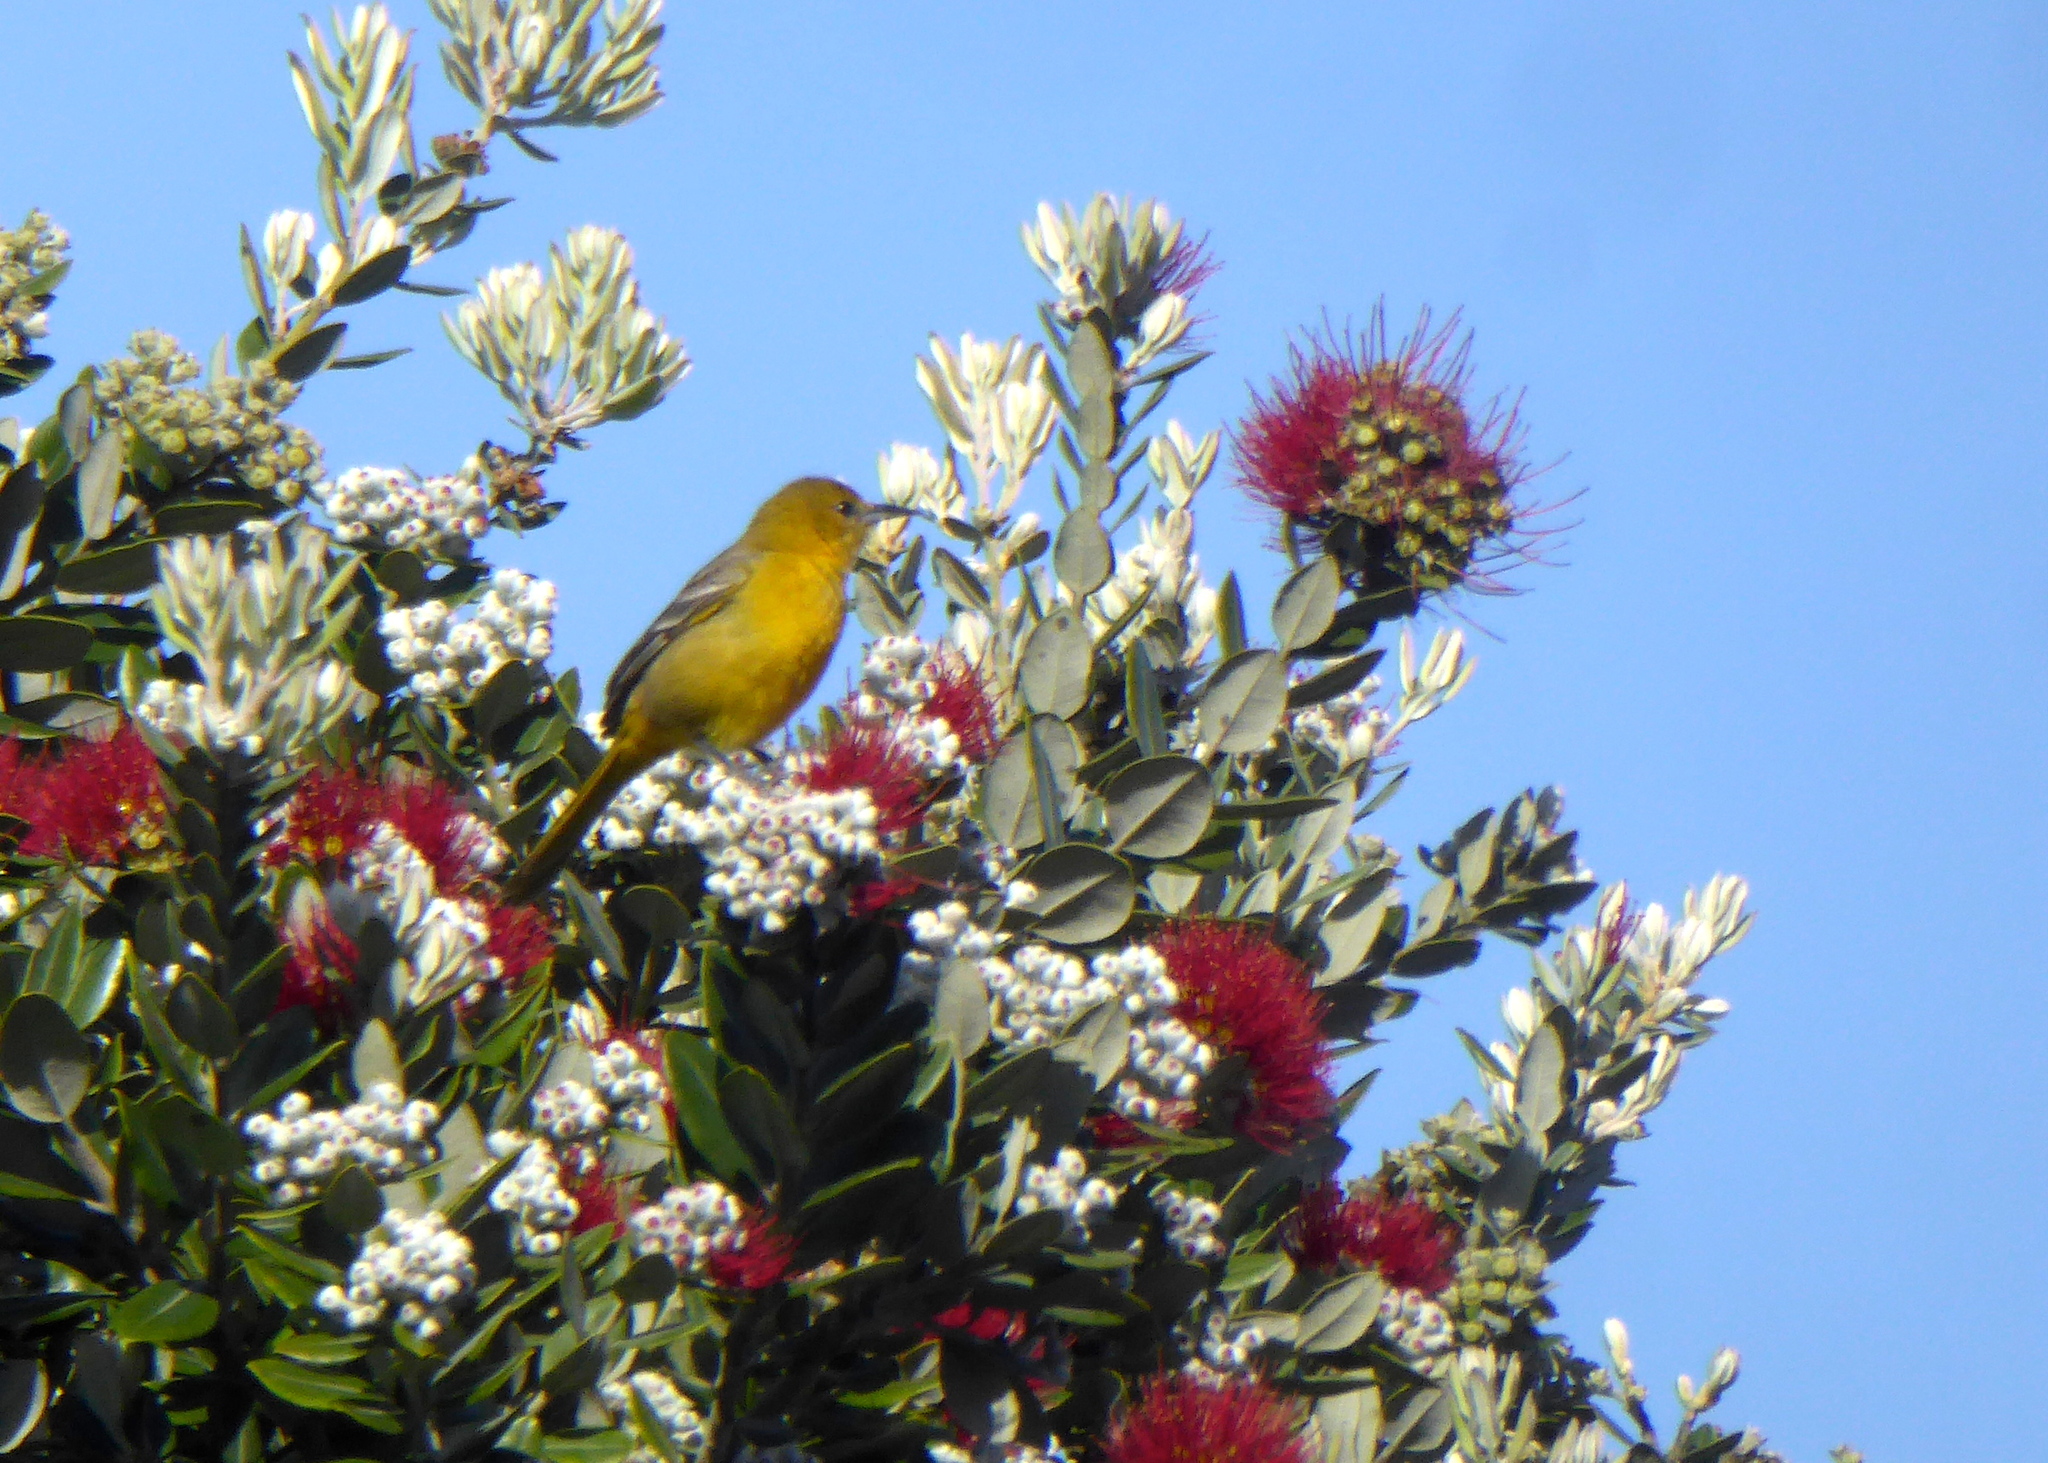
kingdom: Animalia
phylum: Chordata
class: Aves
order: Passeriformes
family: Icteridae
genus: Icterus
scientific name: Icterus cucullatus
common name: Hooded oriole
